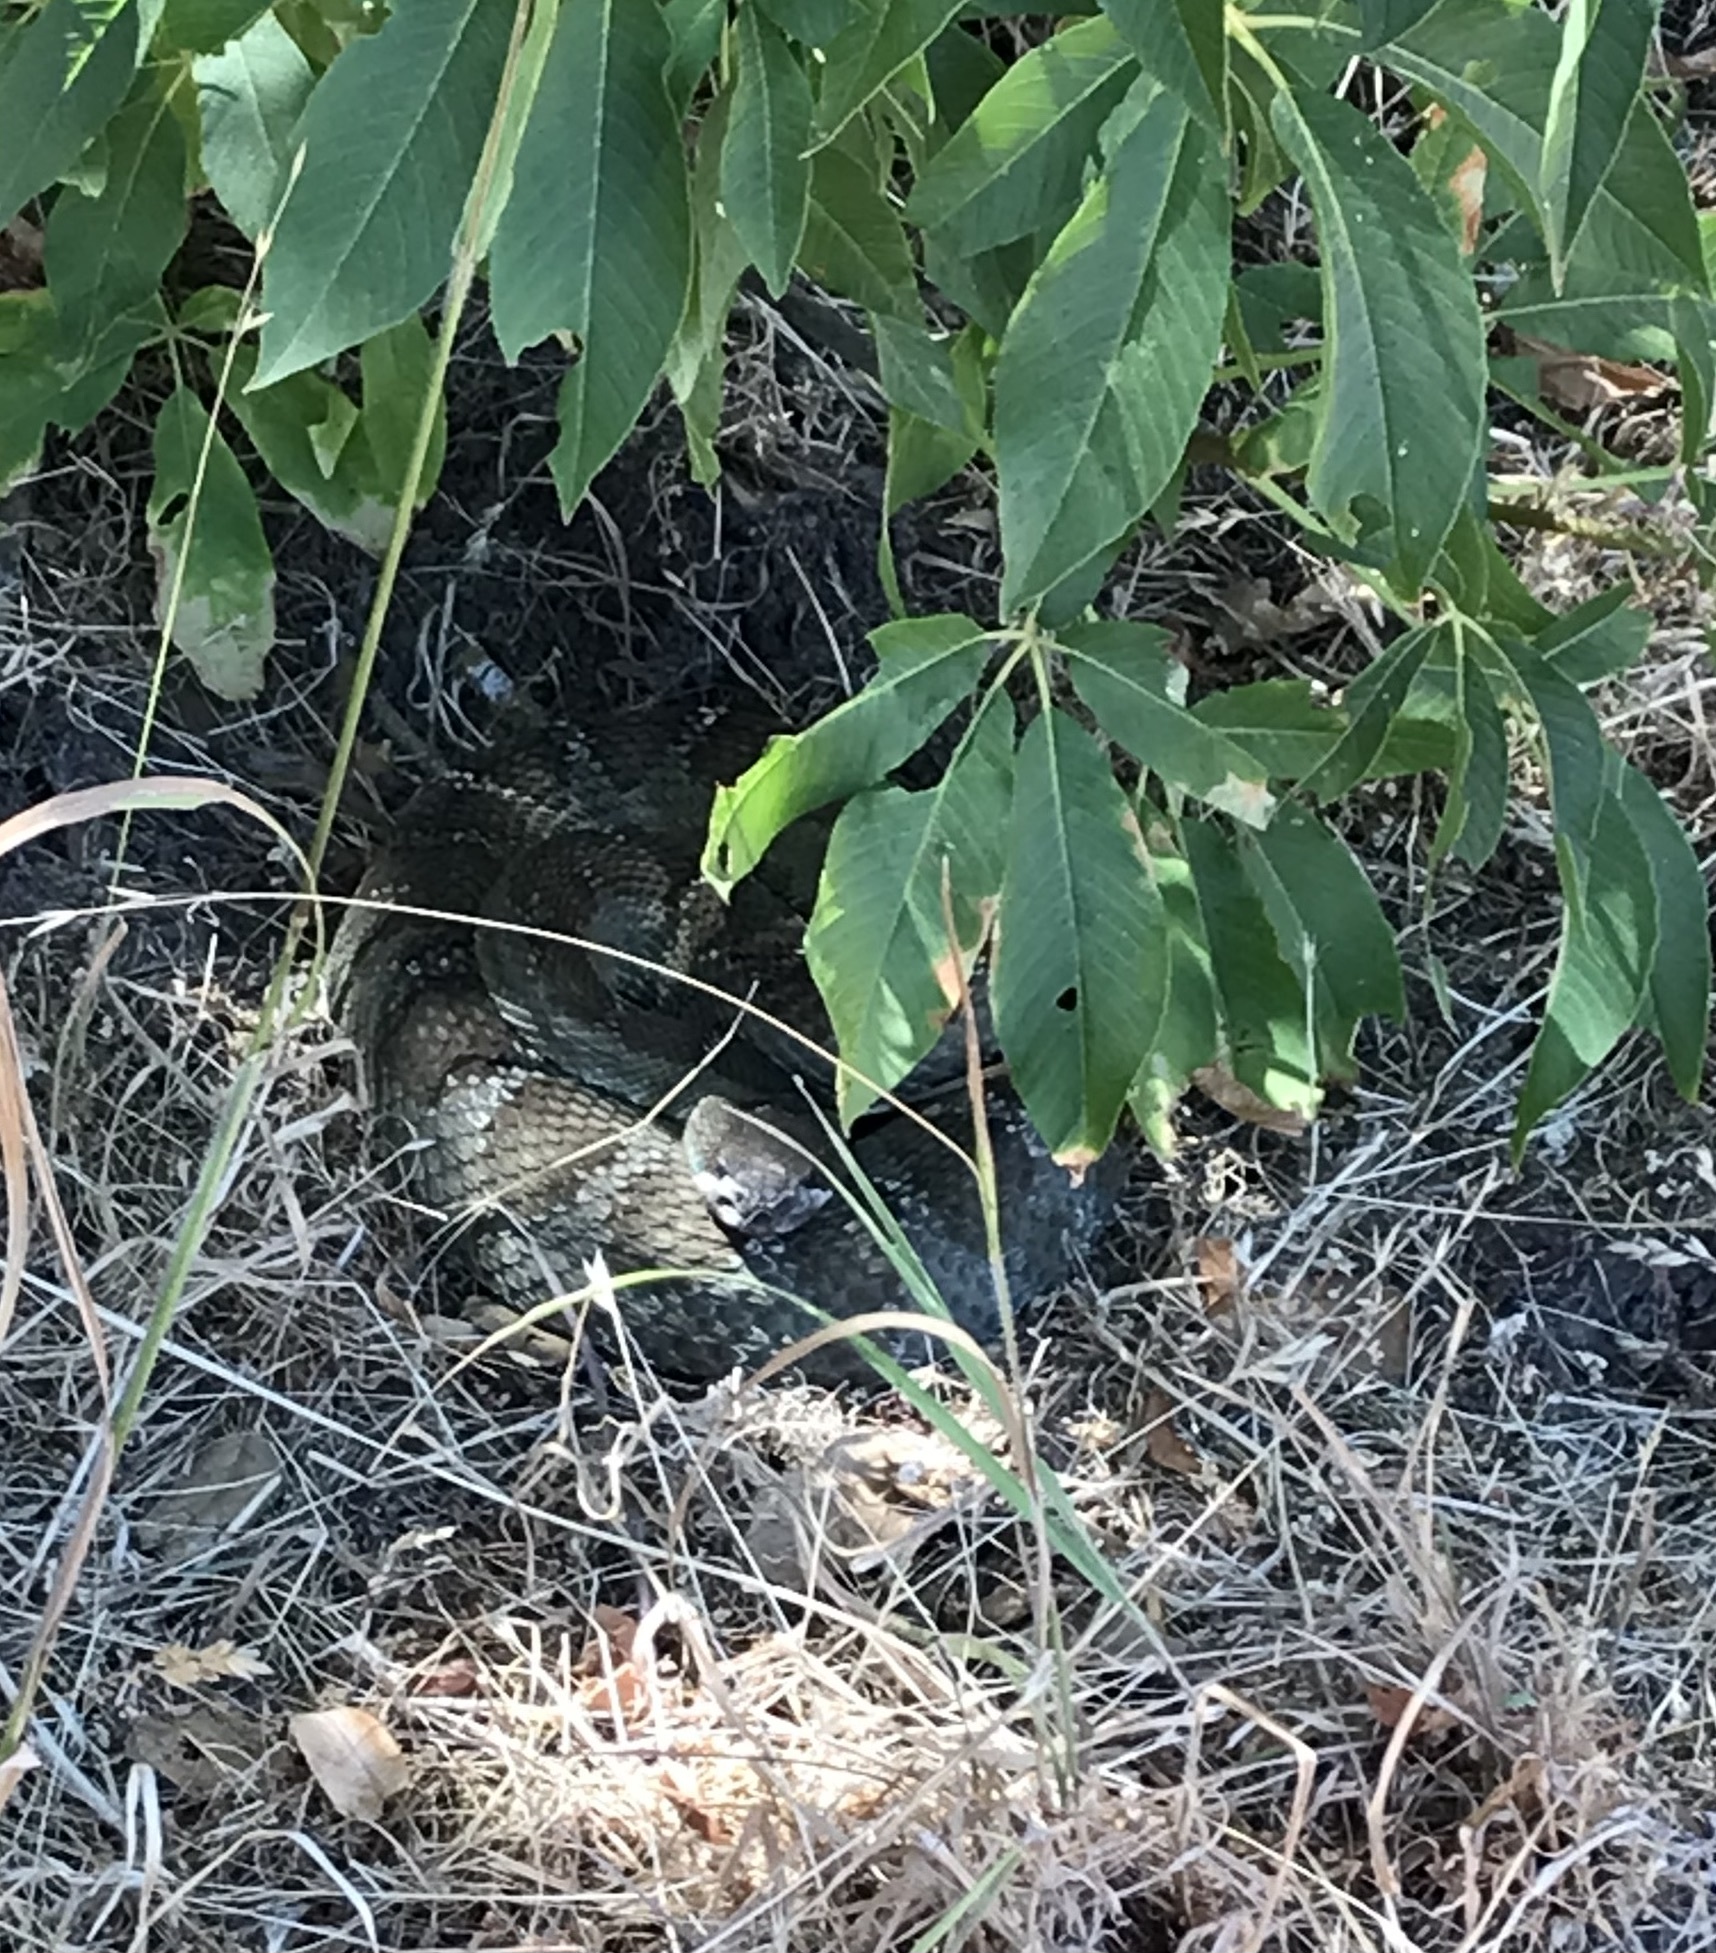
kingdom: Animalia
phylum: Chordata
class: Squamata
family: Viperidae
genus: Crotalus
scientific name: Crotalus oreganus
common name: Abyssus
